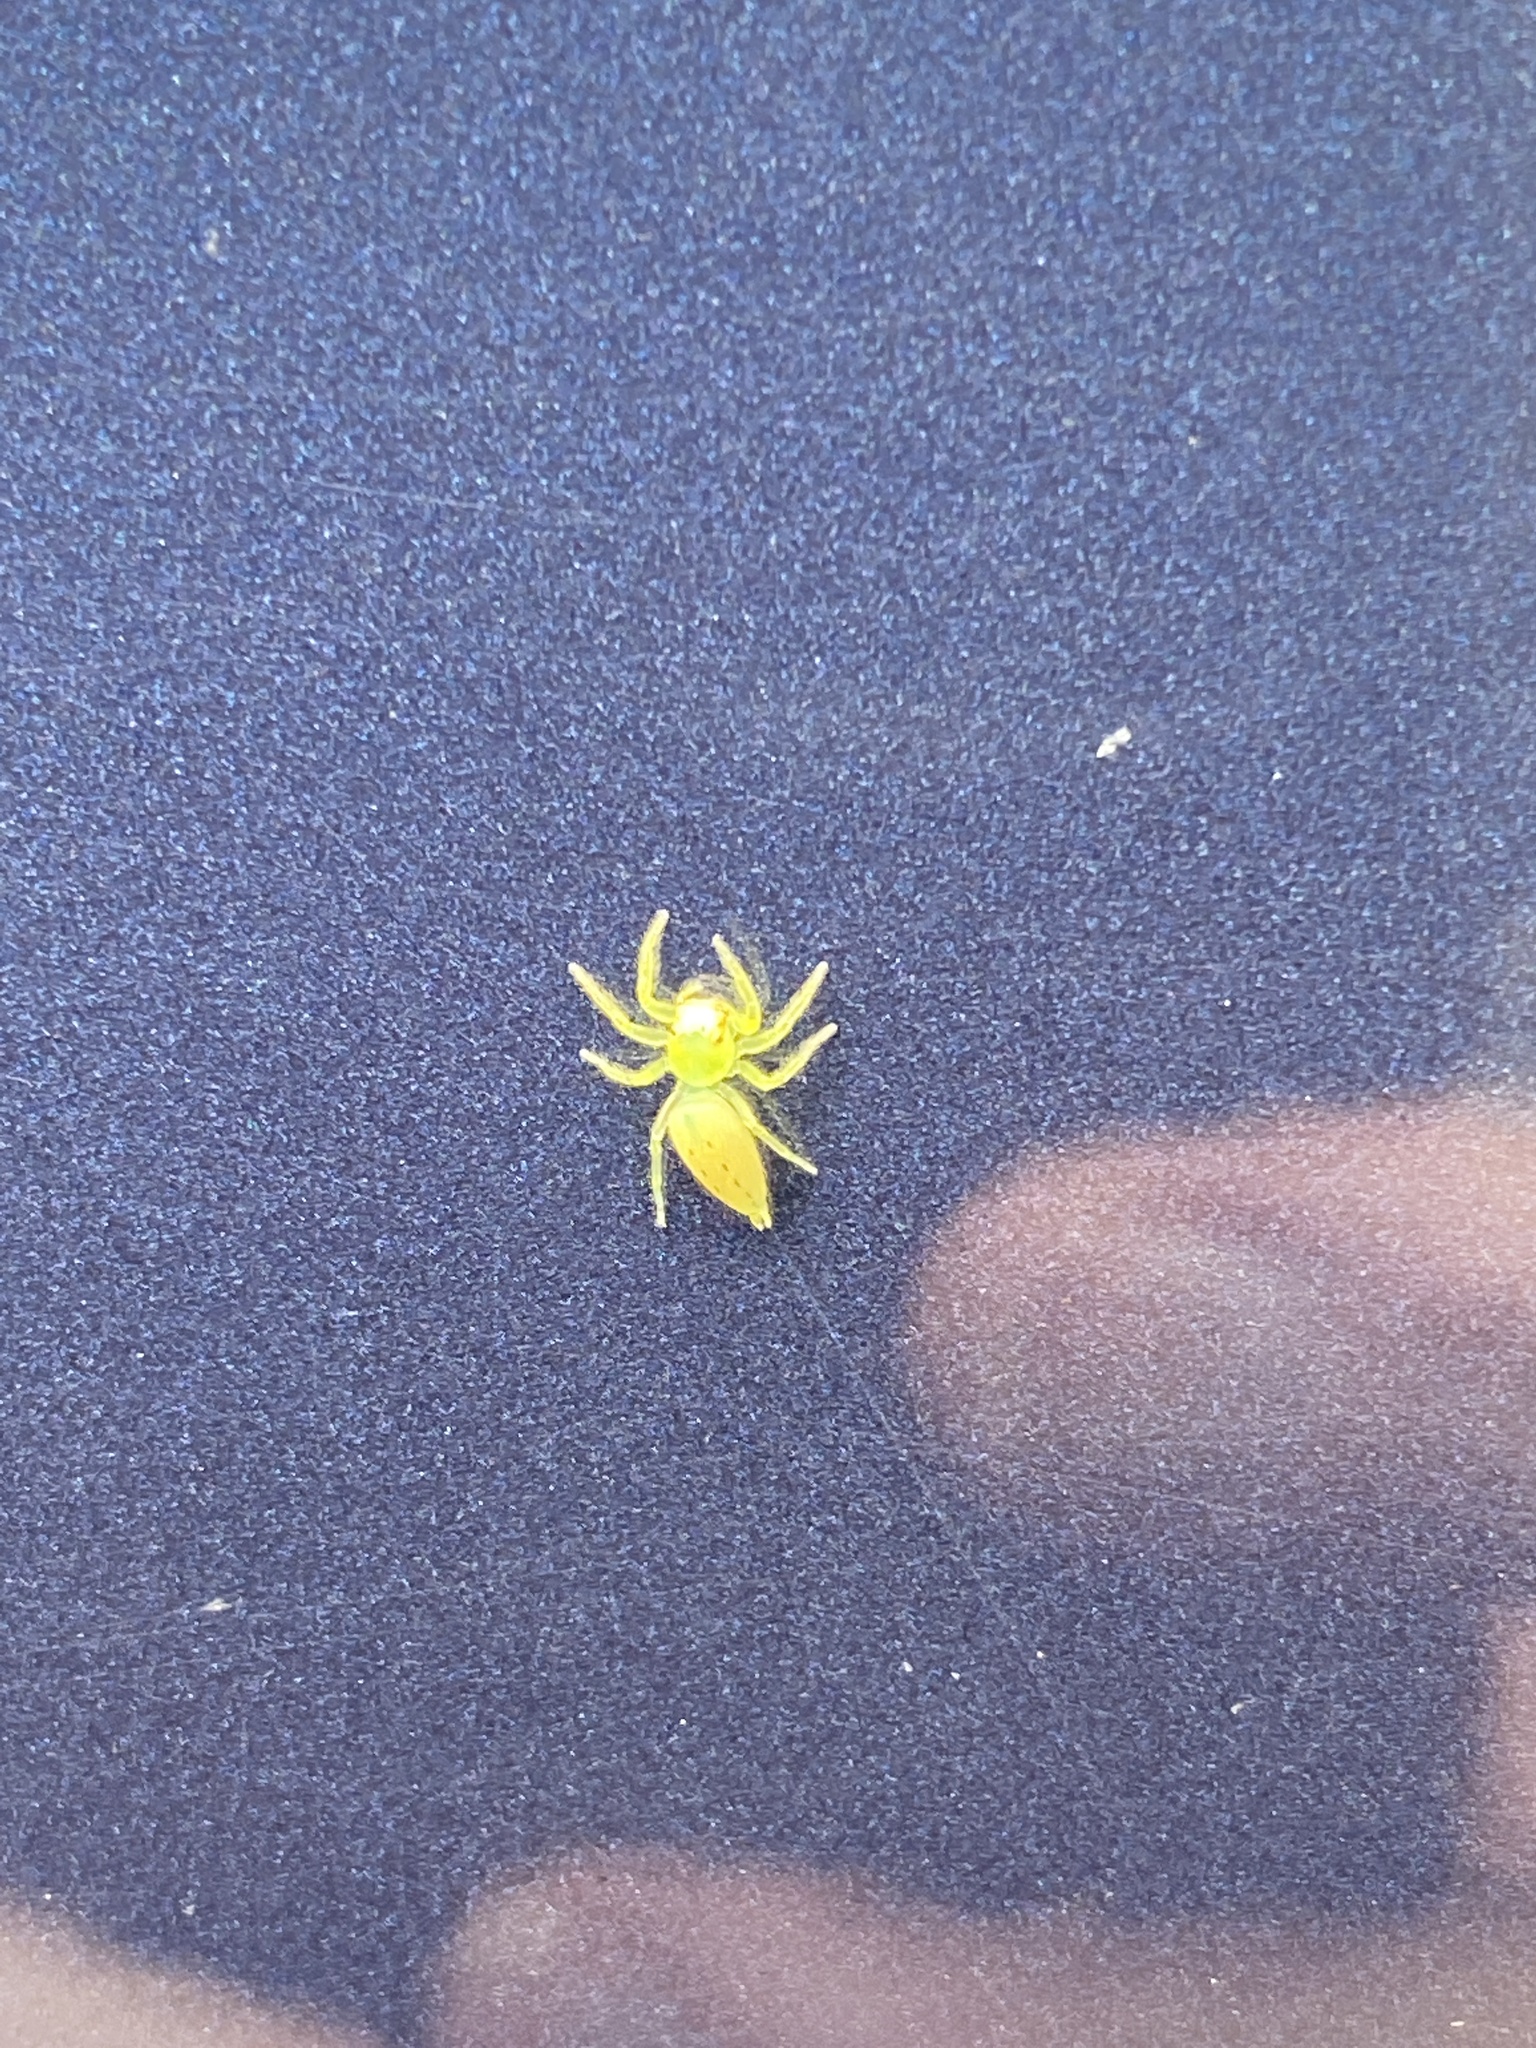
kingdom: Animalia
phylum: Arthropoda
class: Arachnida
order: Araneae
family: Salticidae
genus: Mopsus
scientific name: Mopsus mormon
